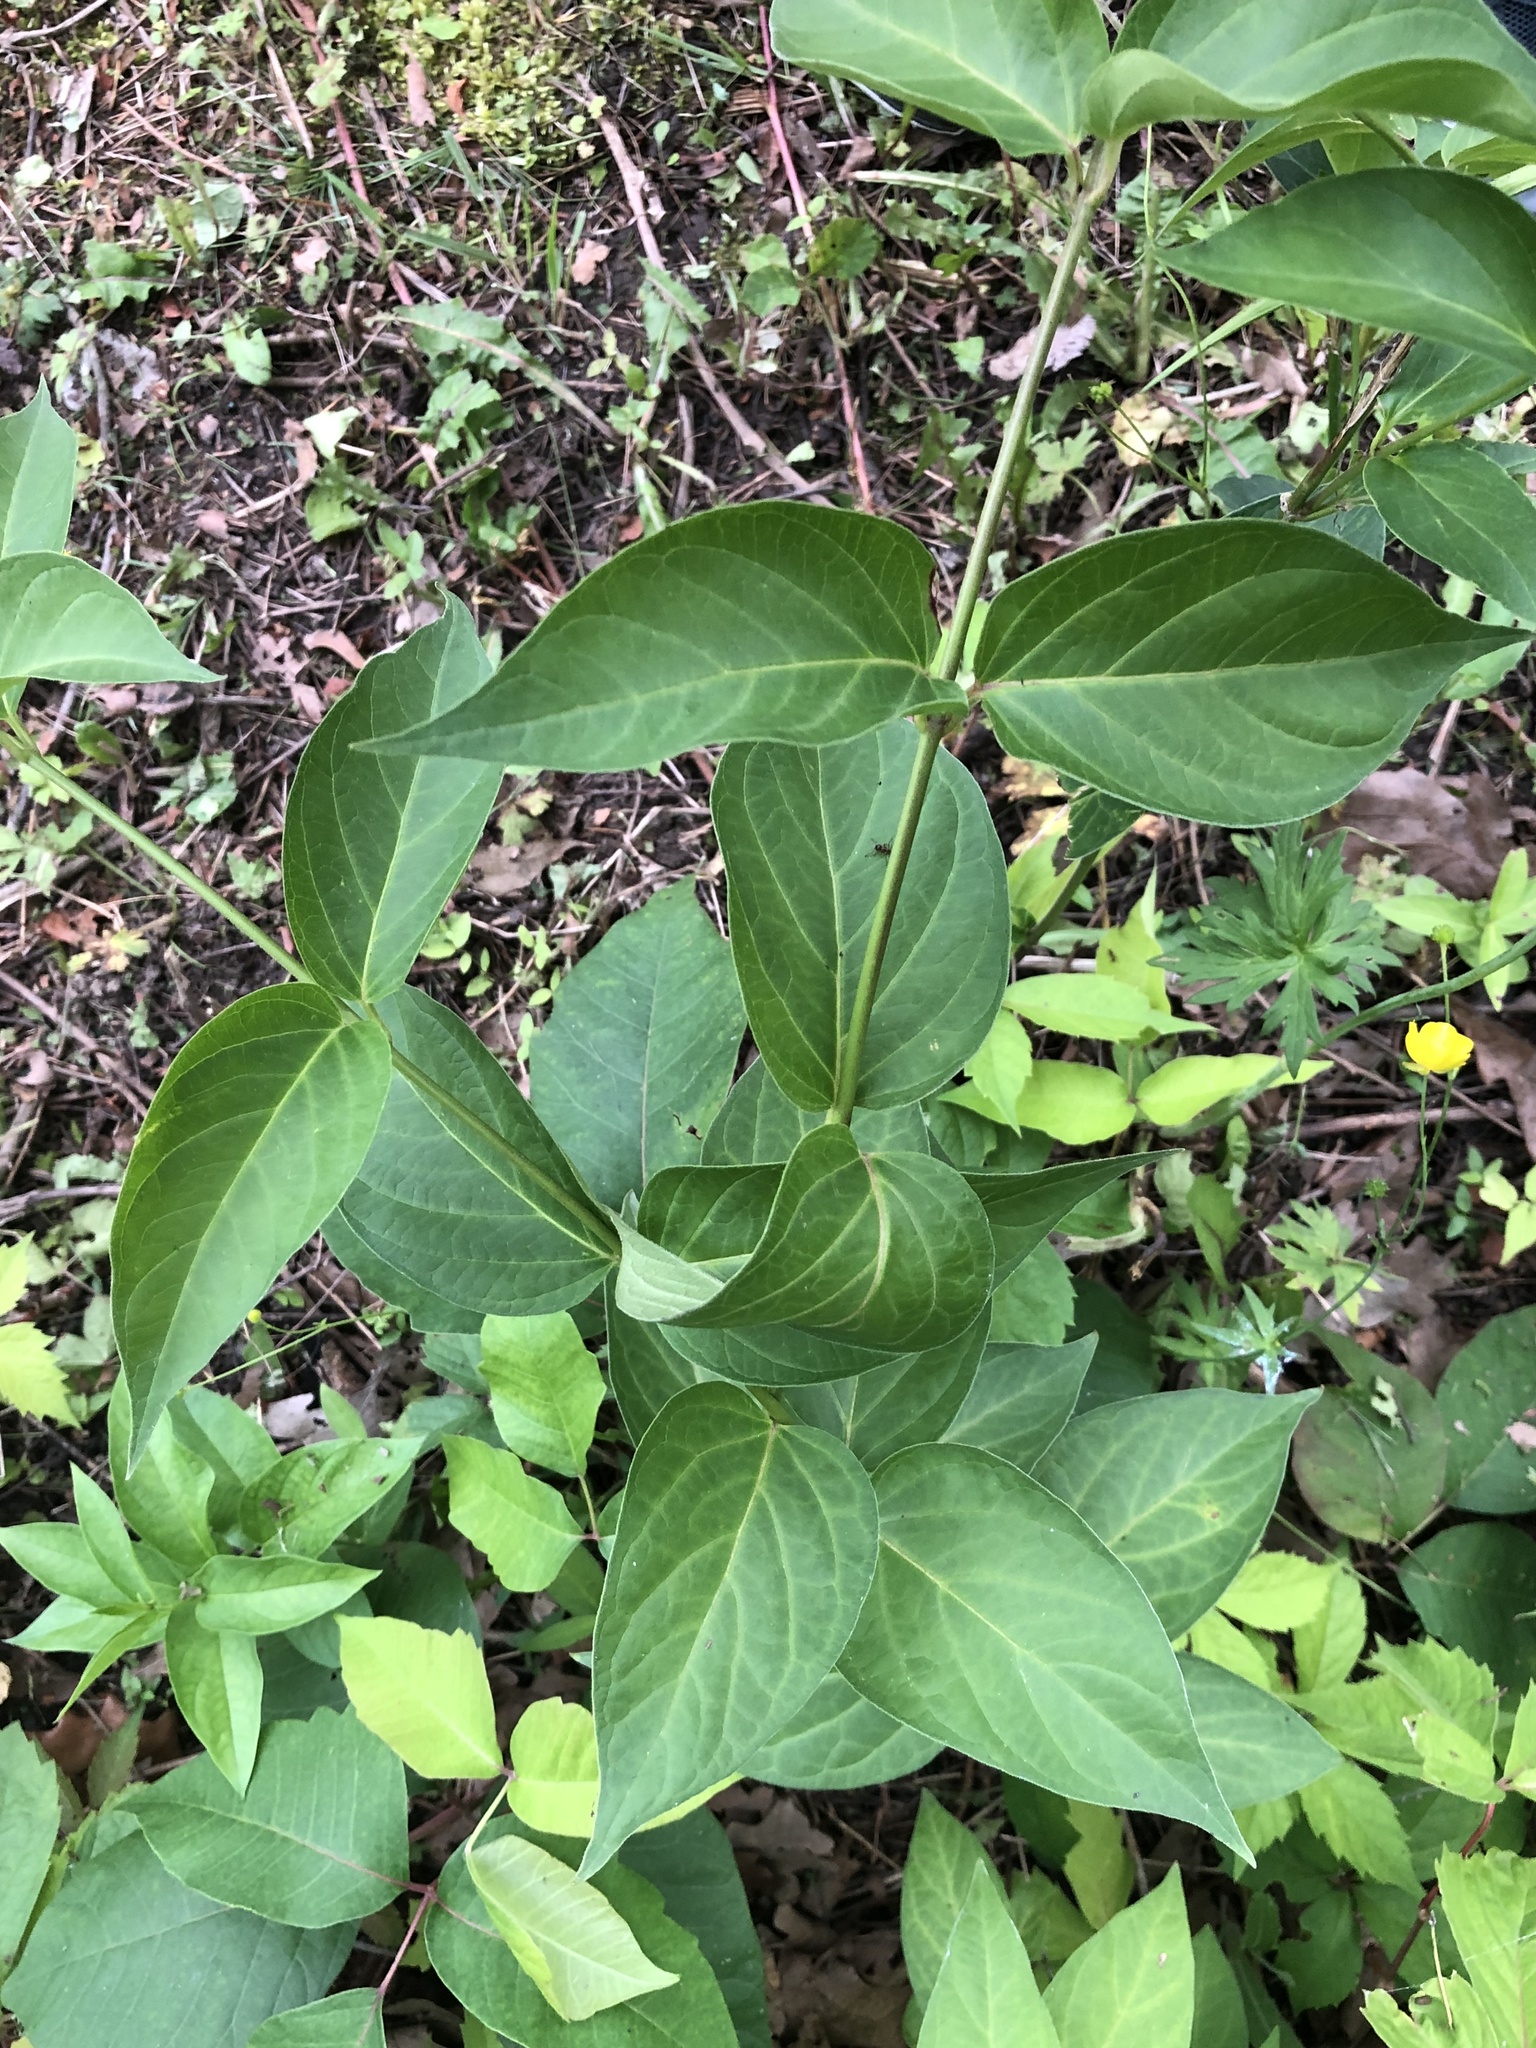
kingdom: Plantae
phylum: Tracheophyta
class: Magnoliopsida
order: Gentianales
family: Apocynaceae
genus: Vincetoxicum
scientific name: Vincetoxicum rossicum
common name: Dog-strangling vine
